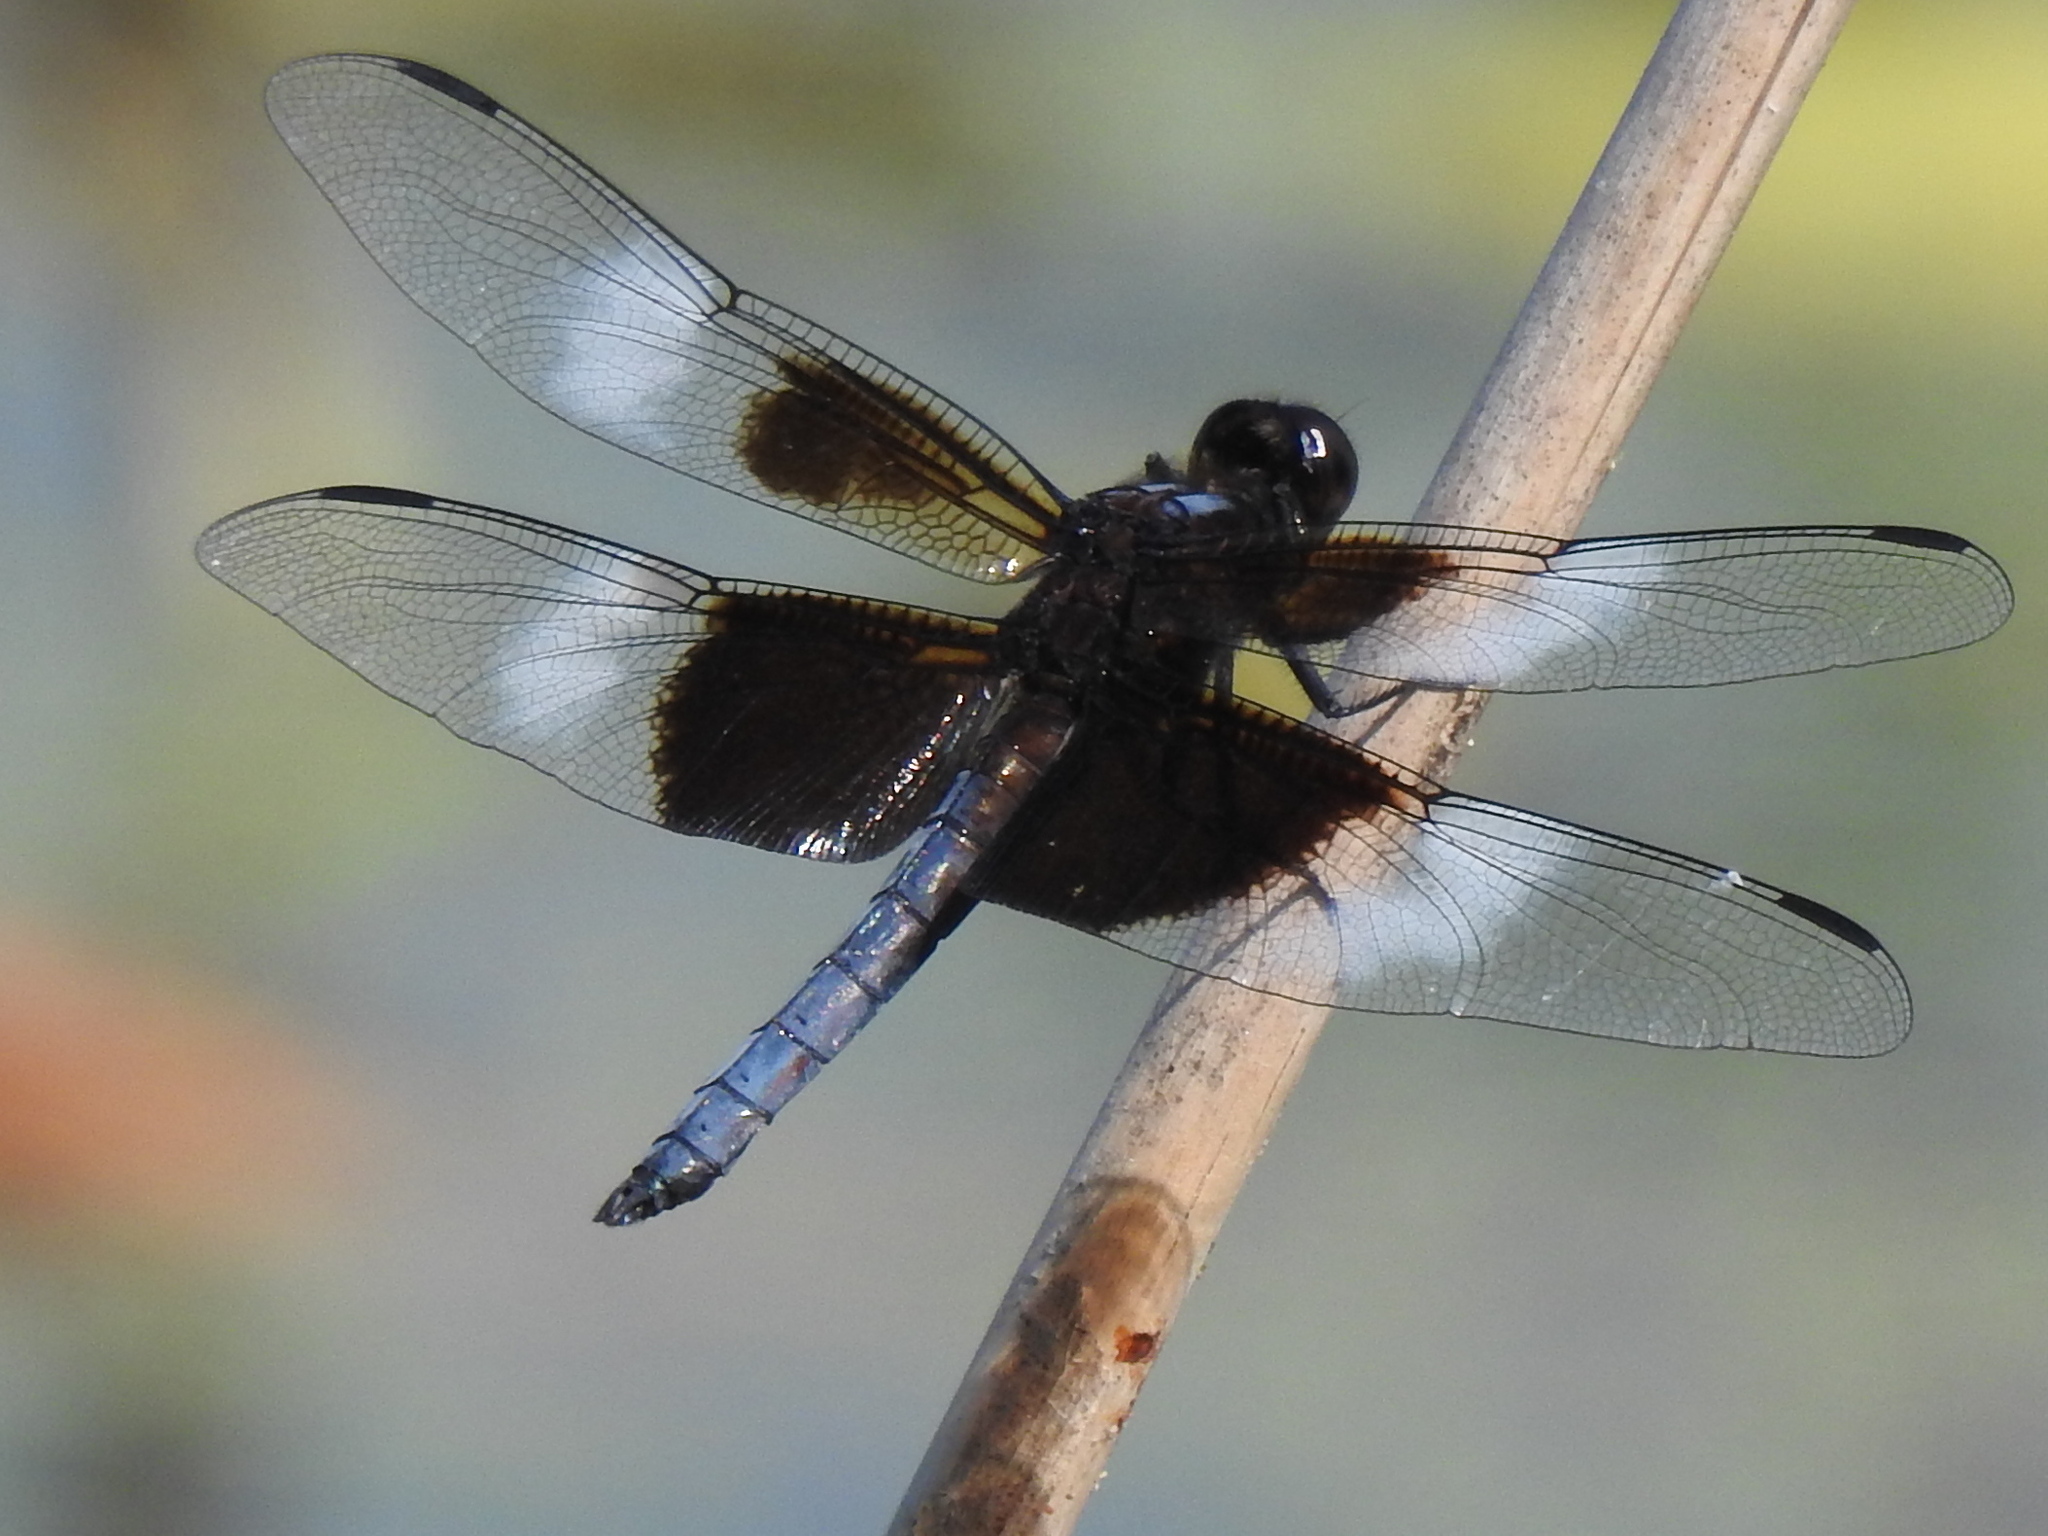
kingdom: Animalia
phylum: Arthropoda
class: Insecta
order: Odonata
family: Libellulidae
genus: Libellula
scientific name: Libellula luctuosa
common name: Widow skimmer
